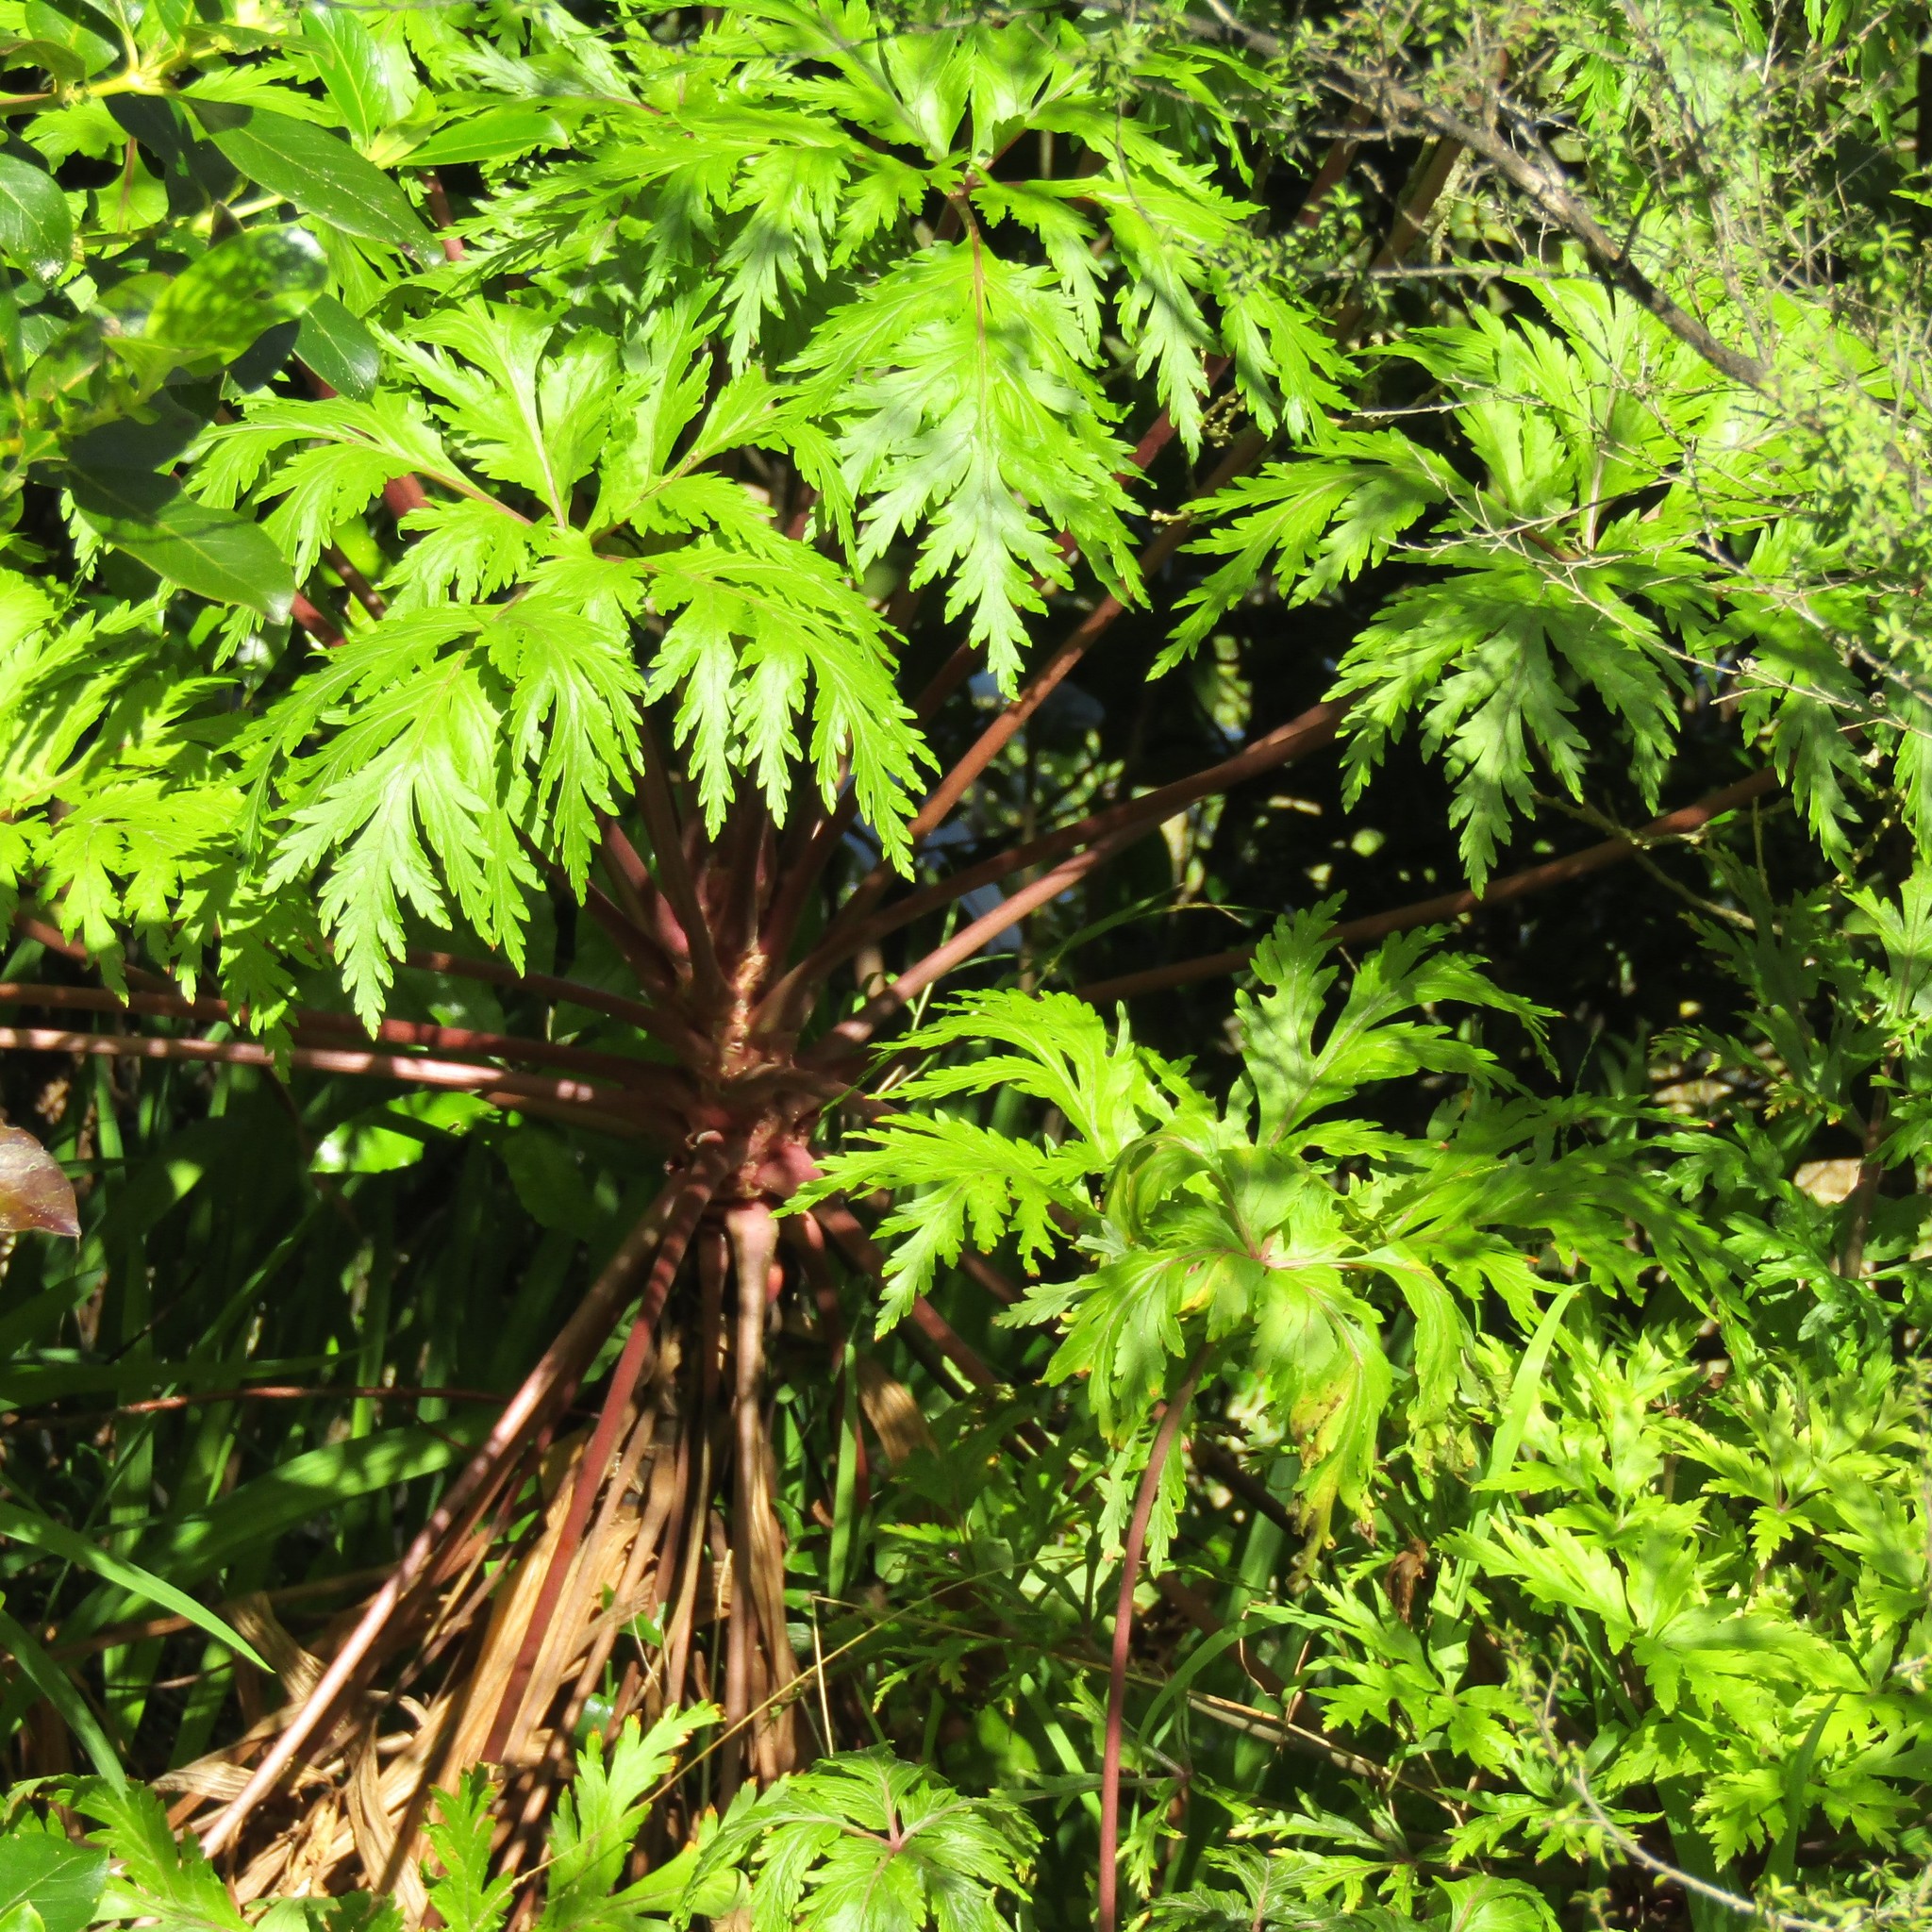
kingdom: Plantae
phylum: Tracheophyta
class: Magnoliopsida
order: Geraniales
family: Geraniaceae
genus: Geranium
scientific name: Geranium maderense
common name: Giant herb-robert
